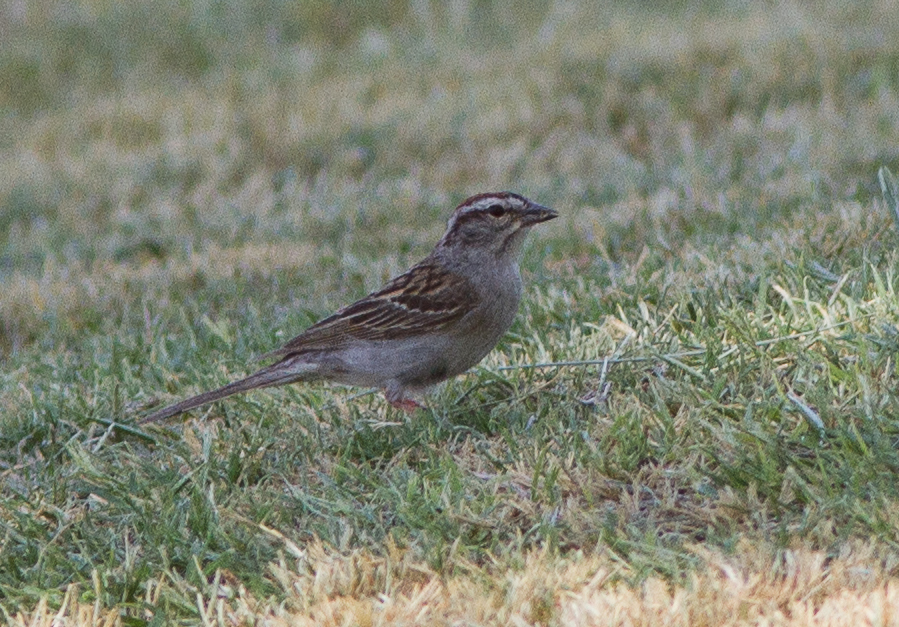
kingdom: Animalia
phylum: Chordata
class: Aves
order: Passeriformes
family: Passerellidae
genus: Spizella
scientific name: Spizella passerina
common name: Chipping sparrow
